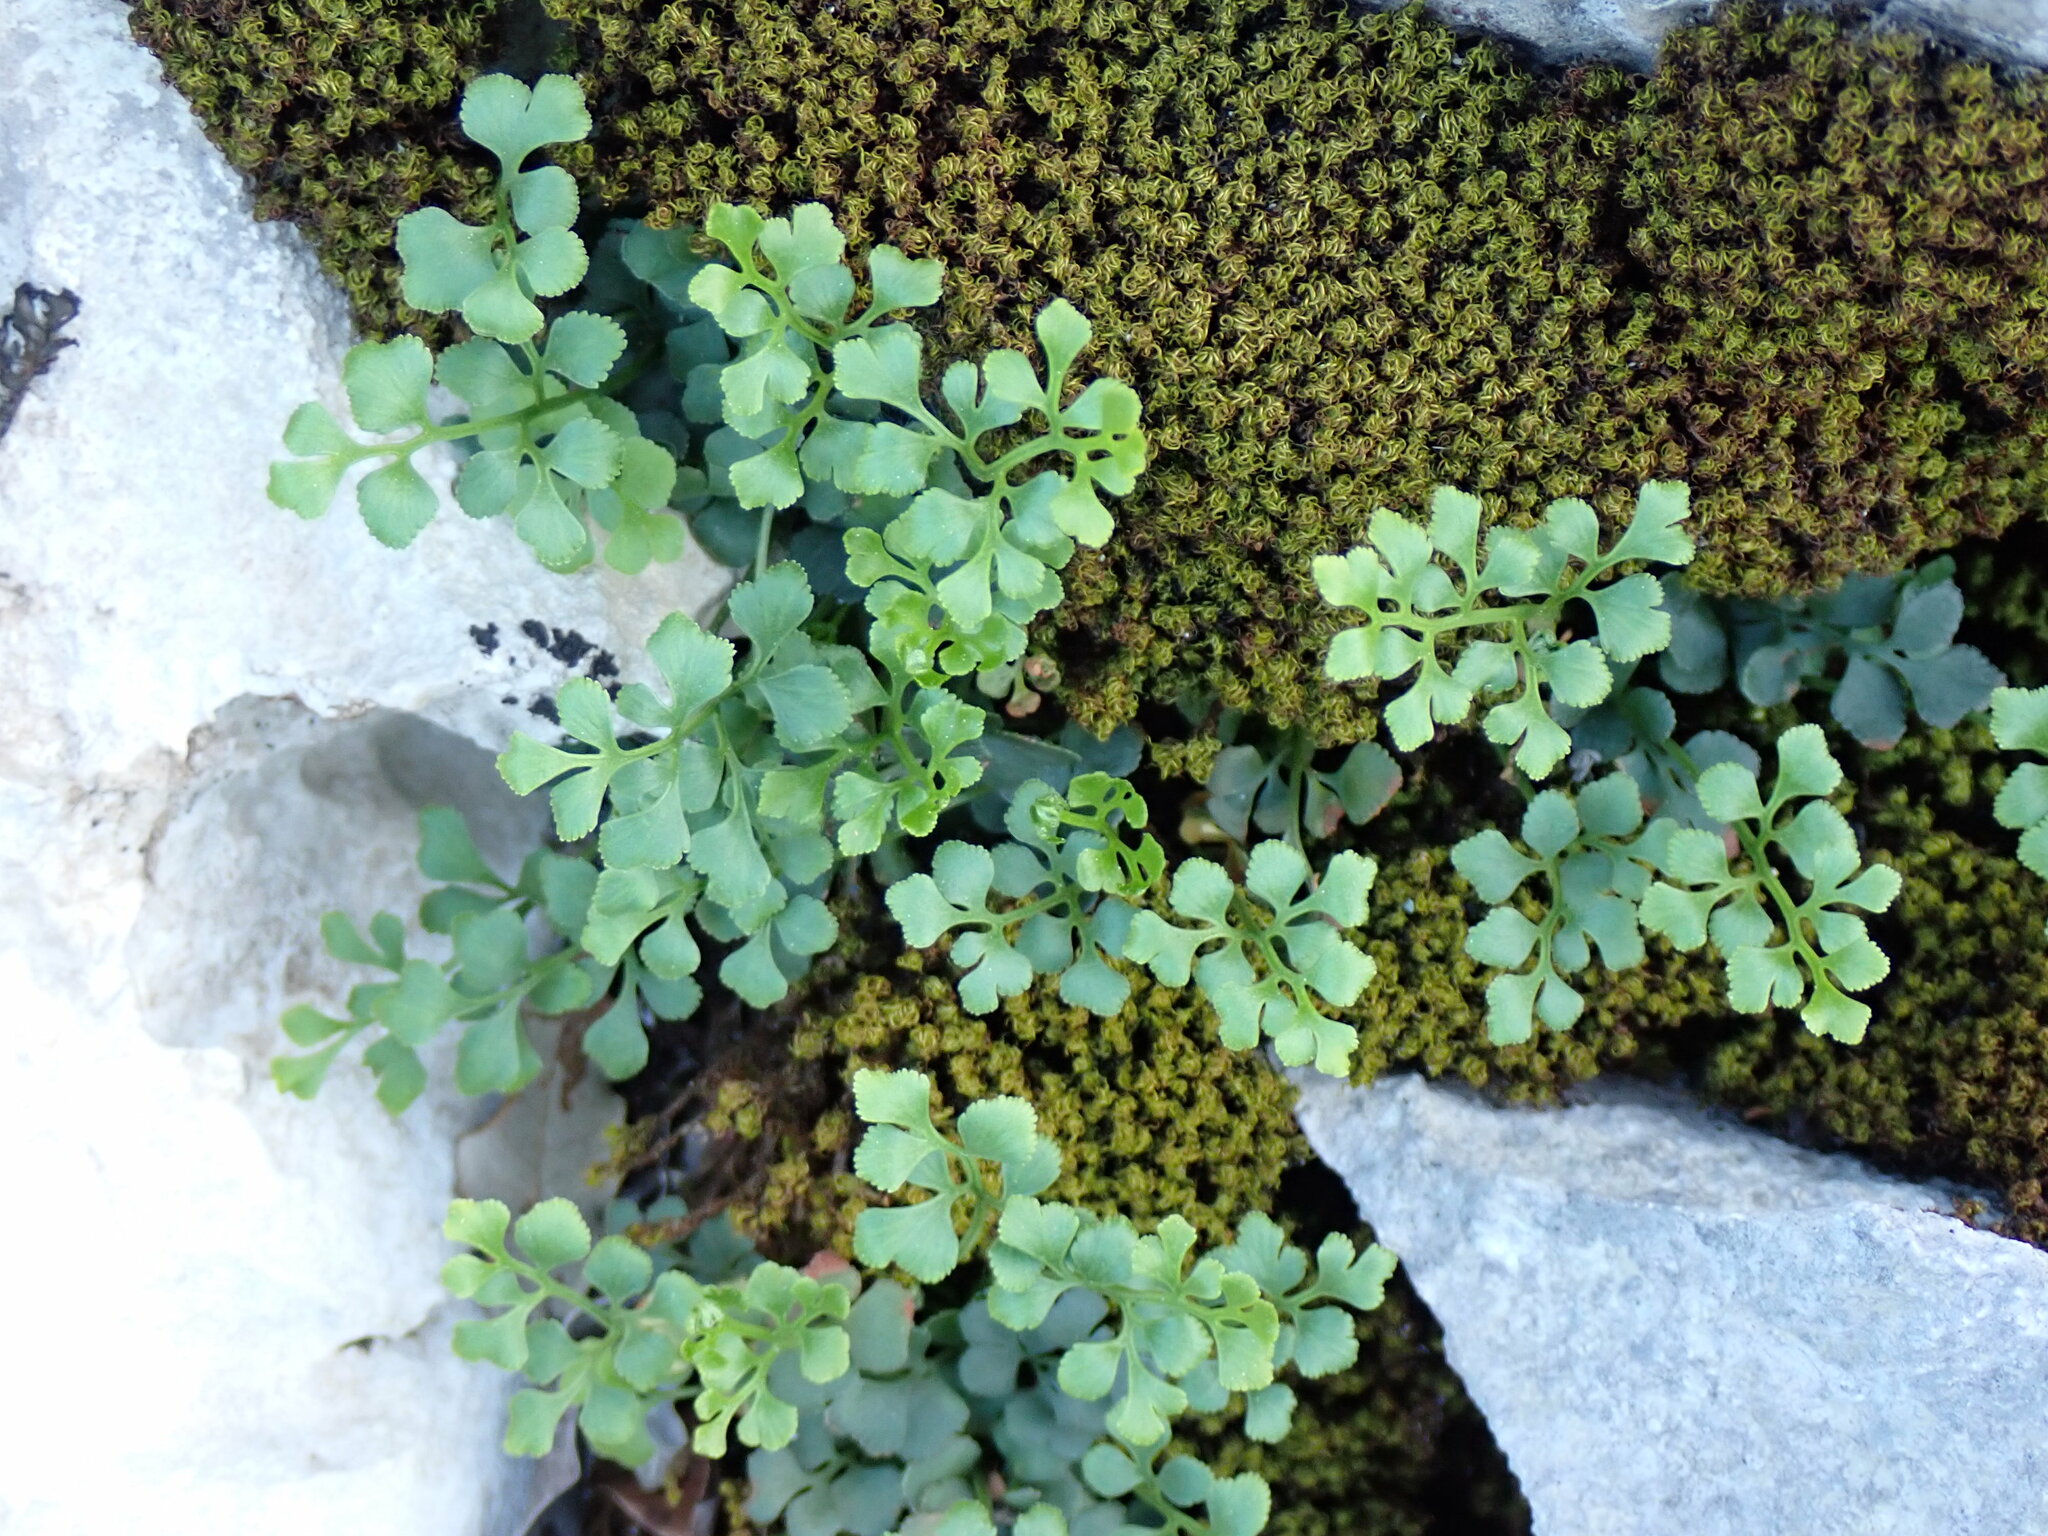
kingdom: Plantae
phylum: Tracheophyta
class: Polypodiopsida
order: Polypodiales
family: Aspleniaceae
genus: Asplenium
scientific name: Asplenium ruta-muraria
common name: Wall-rue
